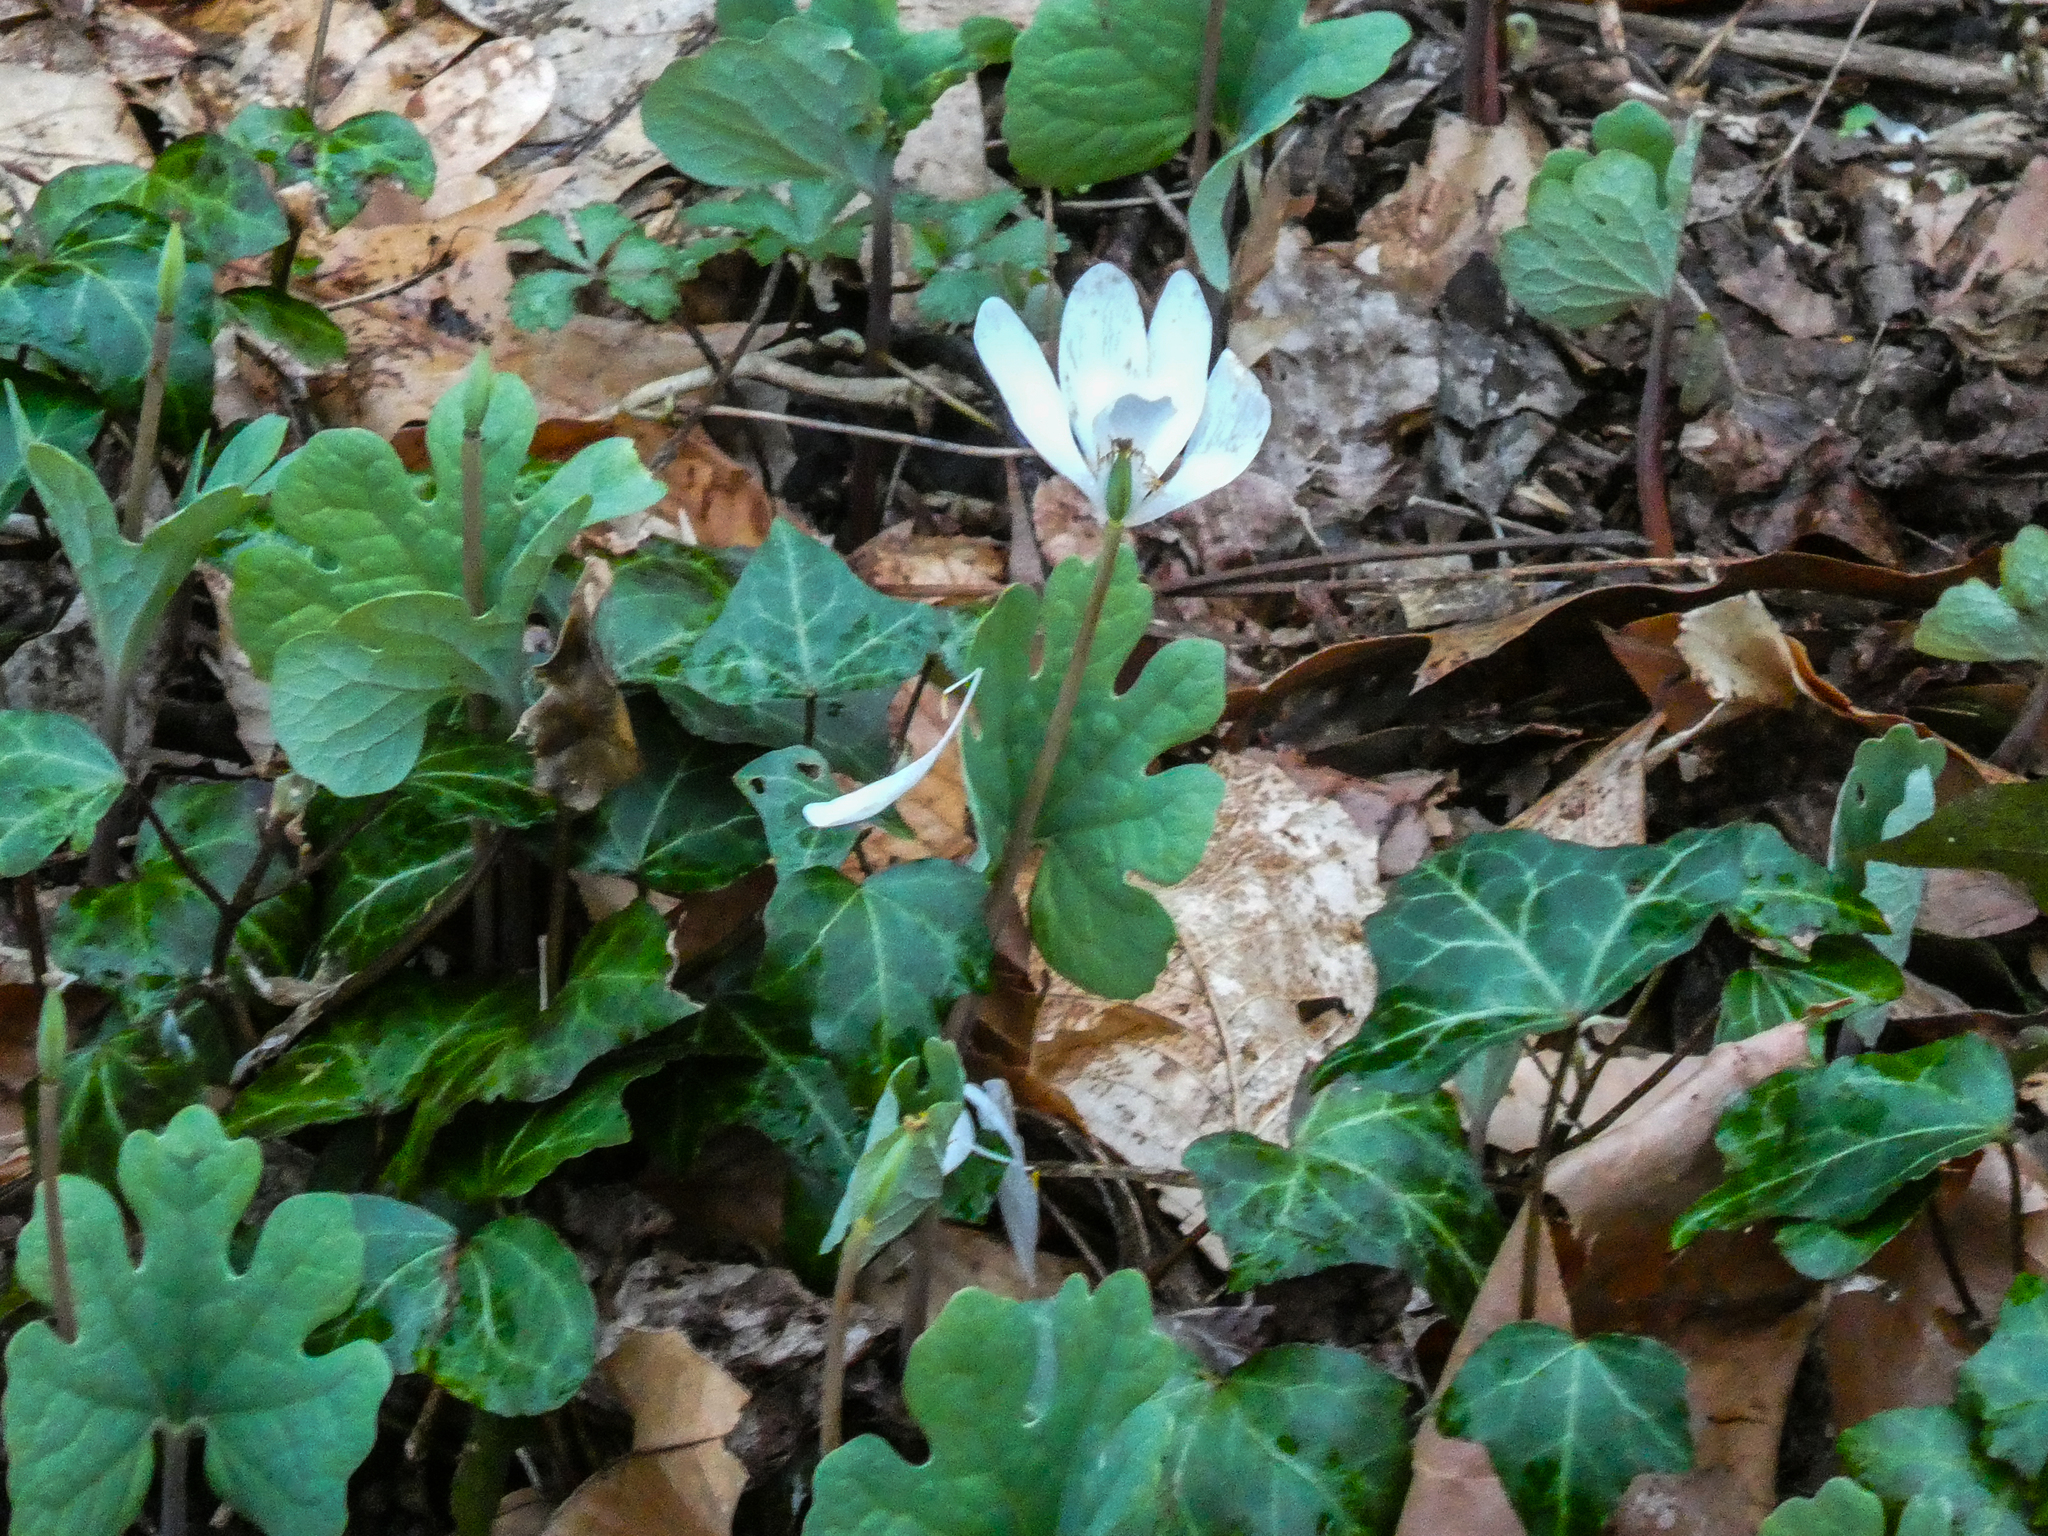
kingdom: Plantae
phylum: Tracheophyta
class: Magnoliopsida
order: Ranunculales
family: Papaveraceae
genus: Sanguinaria
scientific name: Sanguinaria canadensis
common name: Bloodroot
